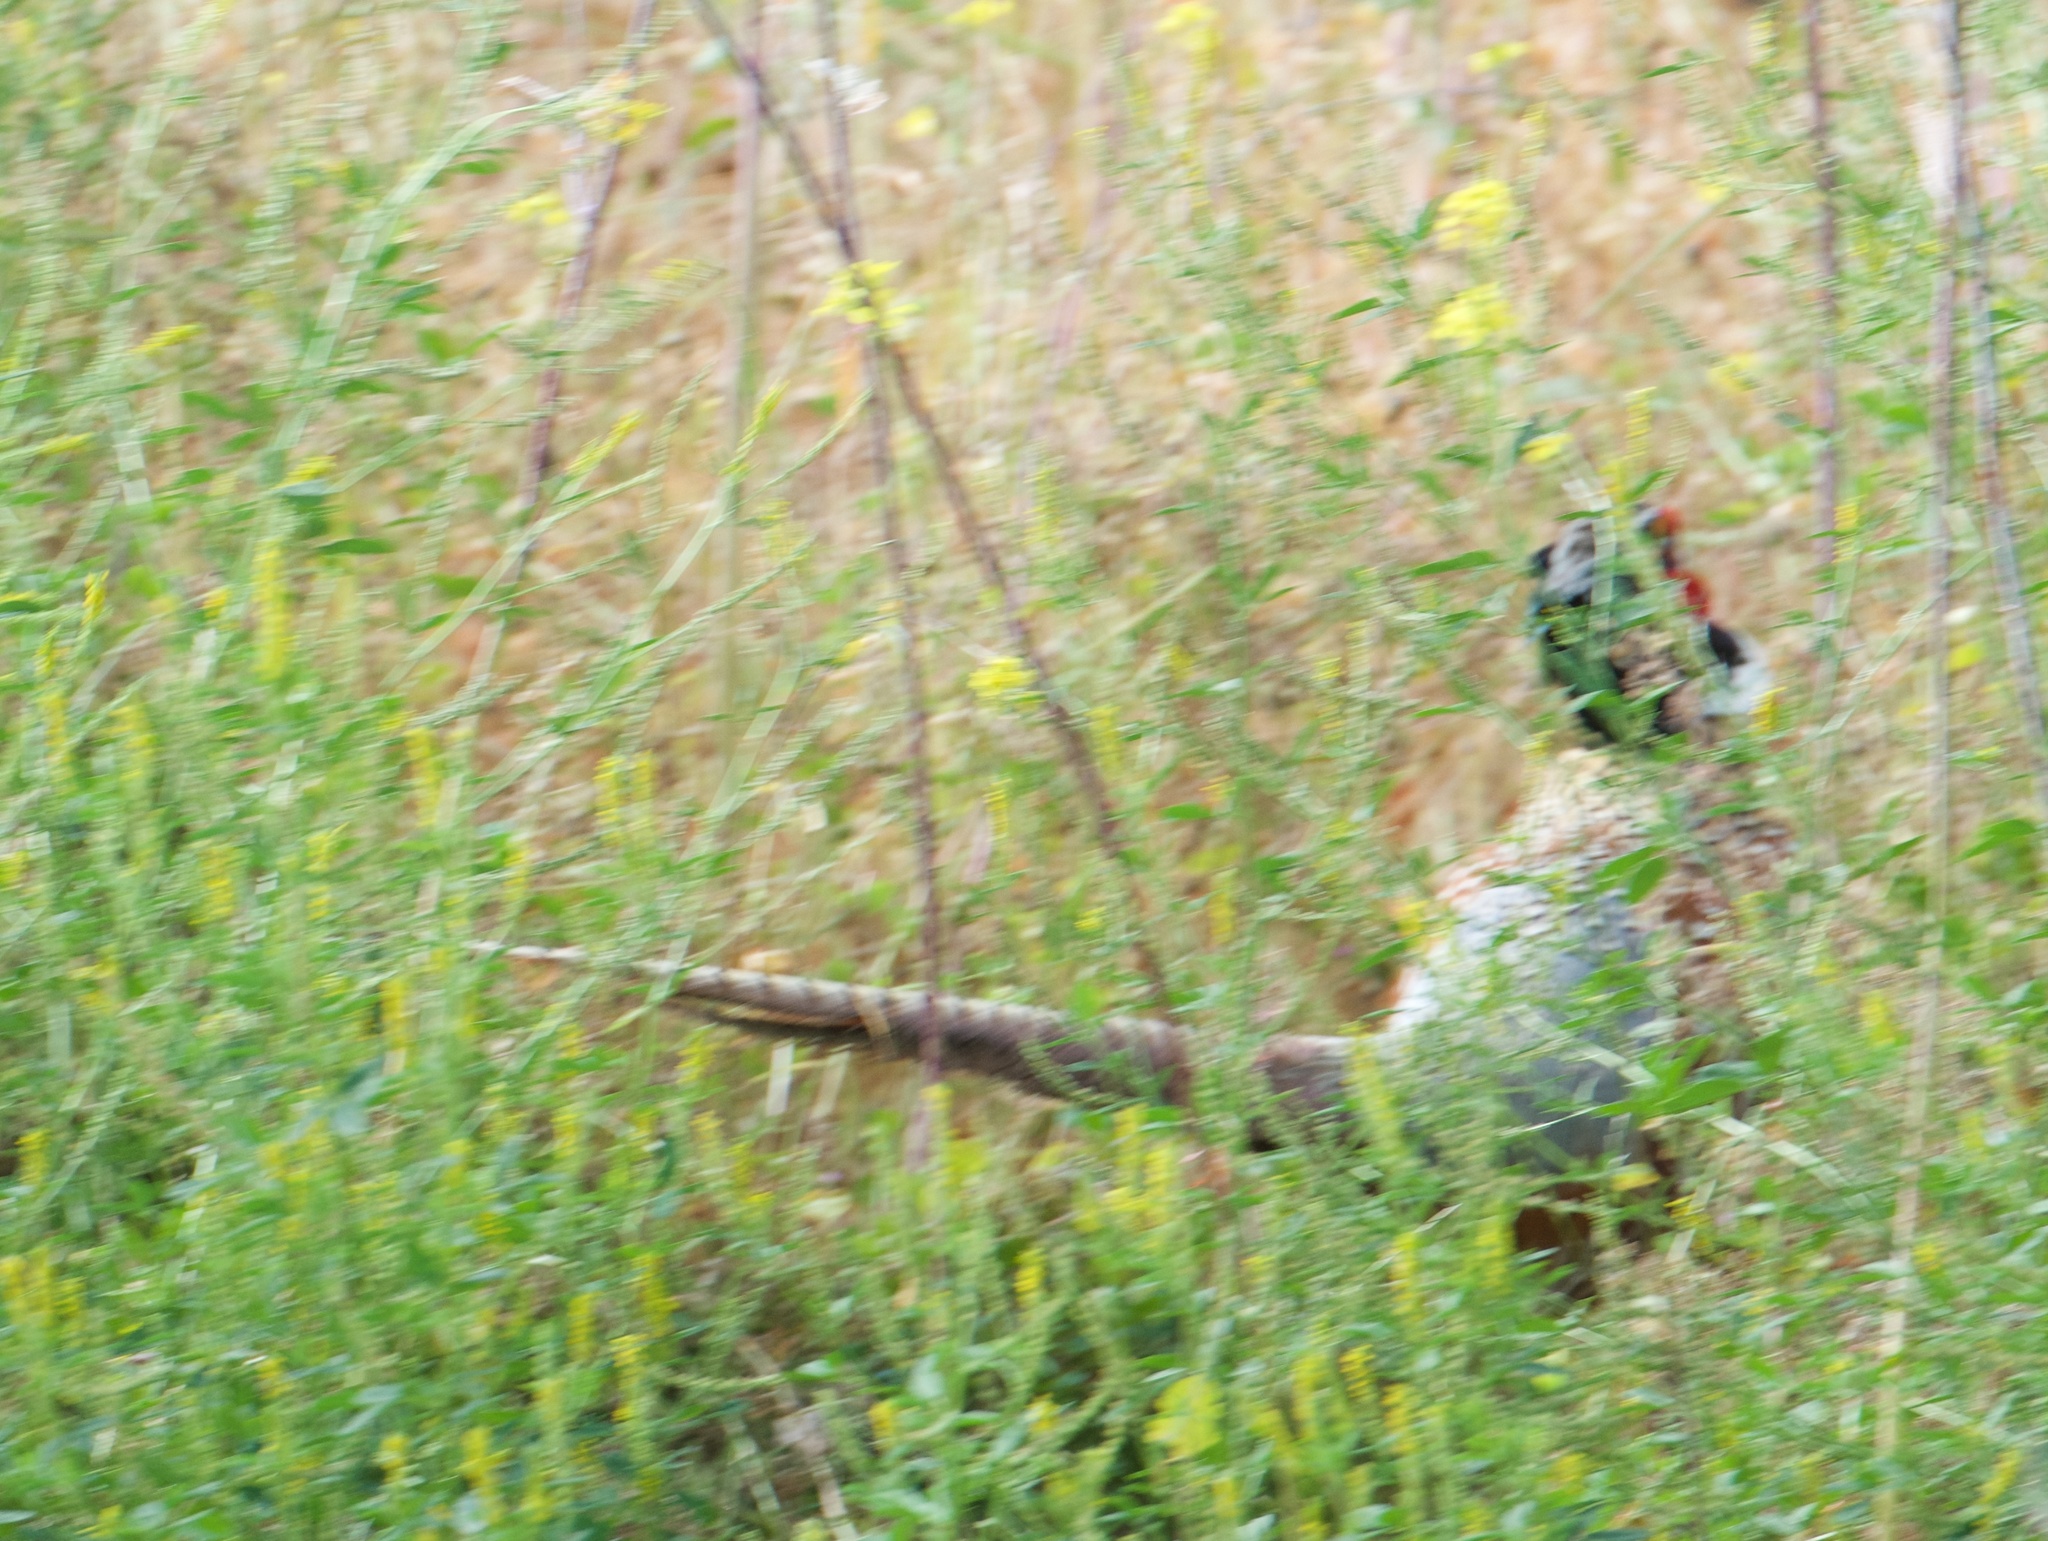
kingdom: Animalia
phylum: Chordata
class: Aves
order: Galliformes
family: Phasianidae
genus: Phasianus
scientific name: Phasianus colchicus
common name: Common pheasant
